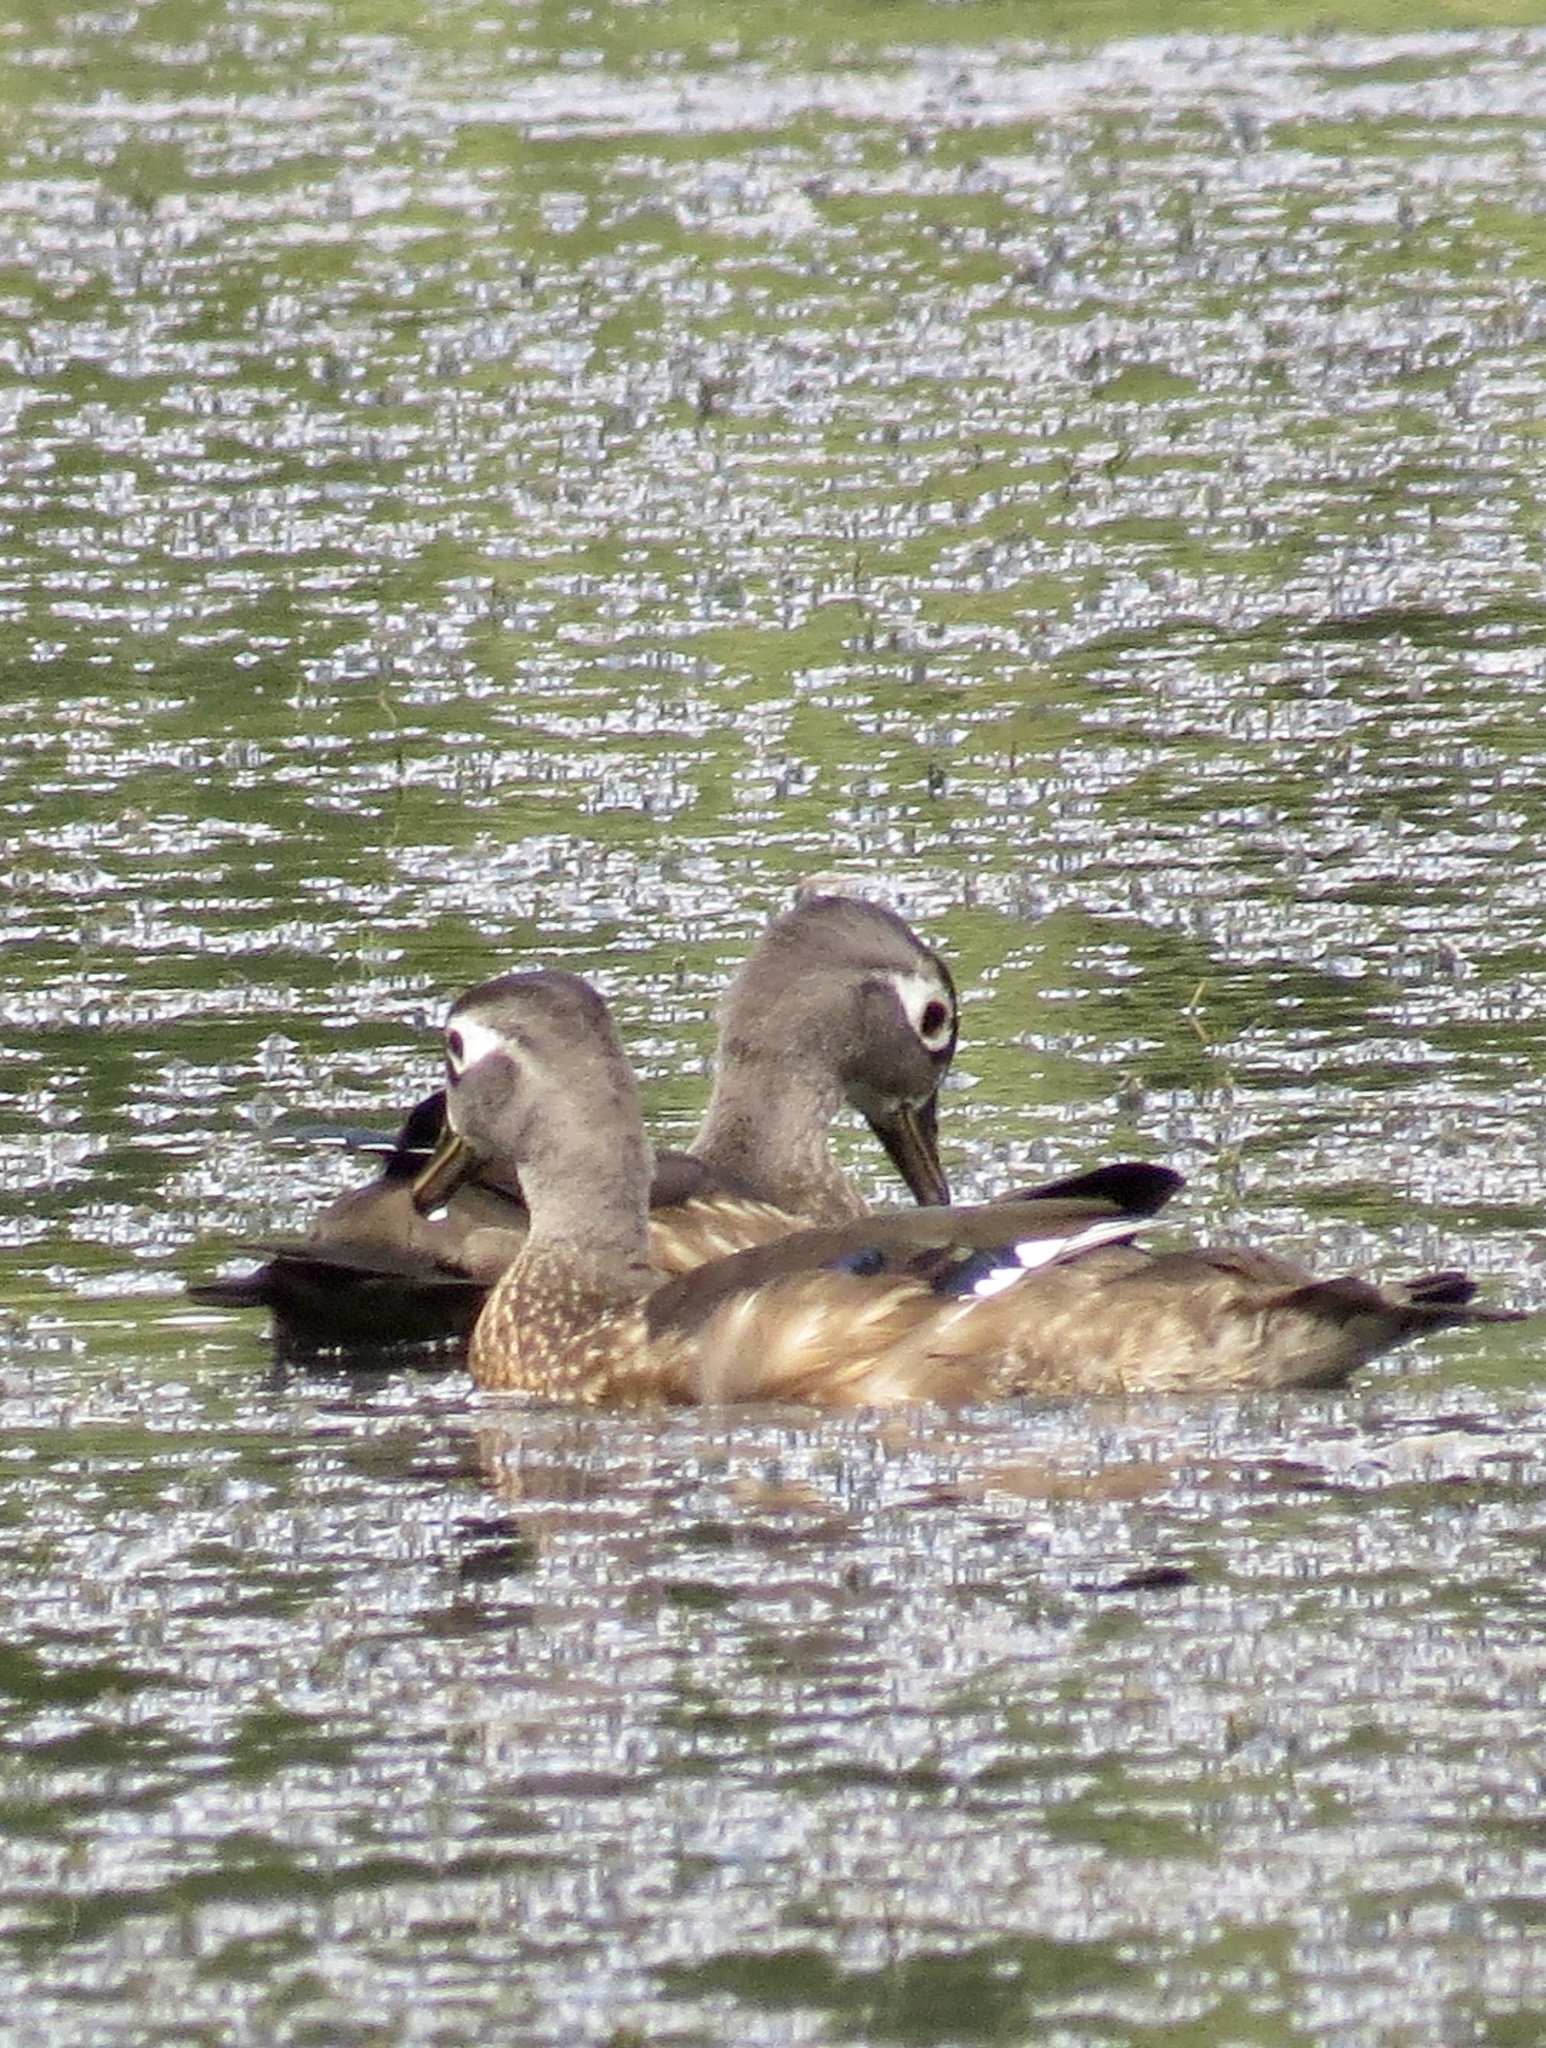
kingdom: Animalia
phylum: Chordata
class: Aves
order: Anseriformes
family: Anatidae
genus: Aix
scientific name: Aix sponsa
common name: Wood duck
